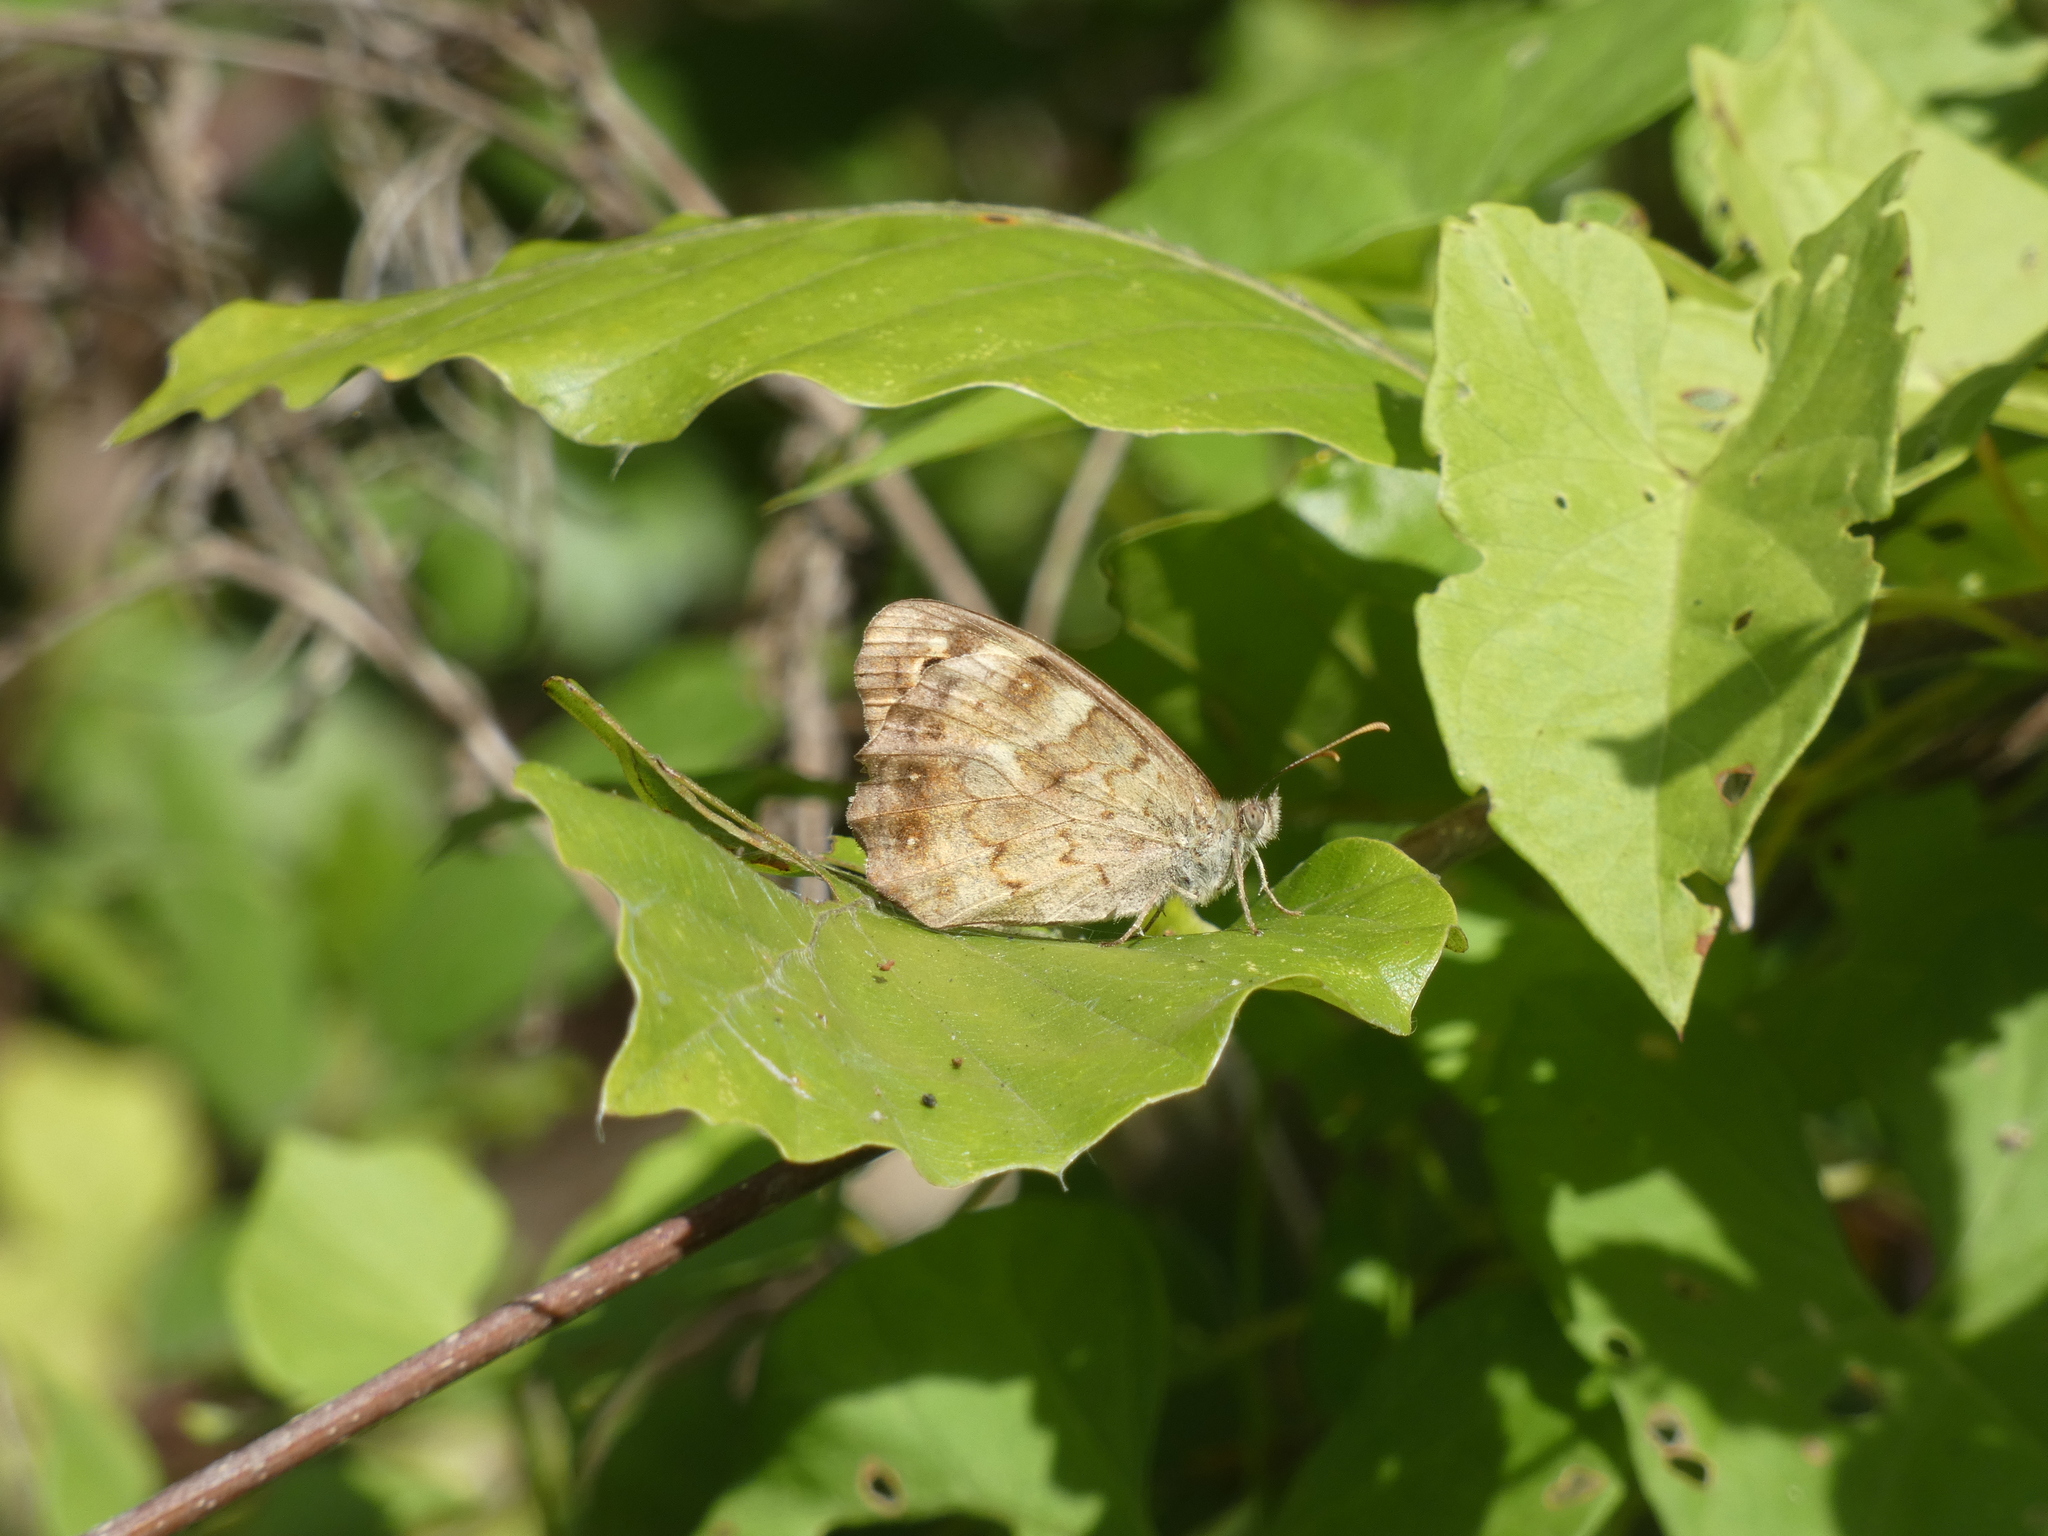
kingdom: Animalia
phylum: Arthropoda
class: Insecta
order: Lepidoptera
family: Nymphalidae
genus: Pararge
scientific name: Pararge aegeria
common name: Speckled wood
